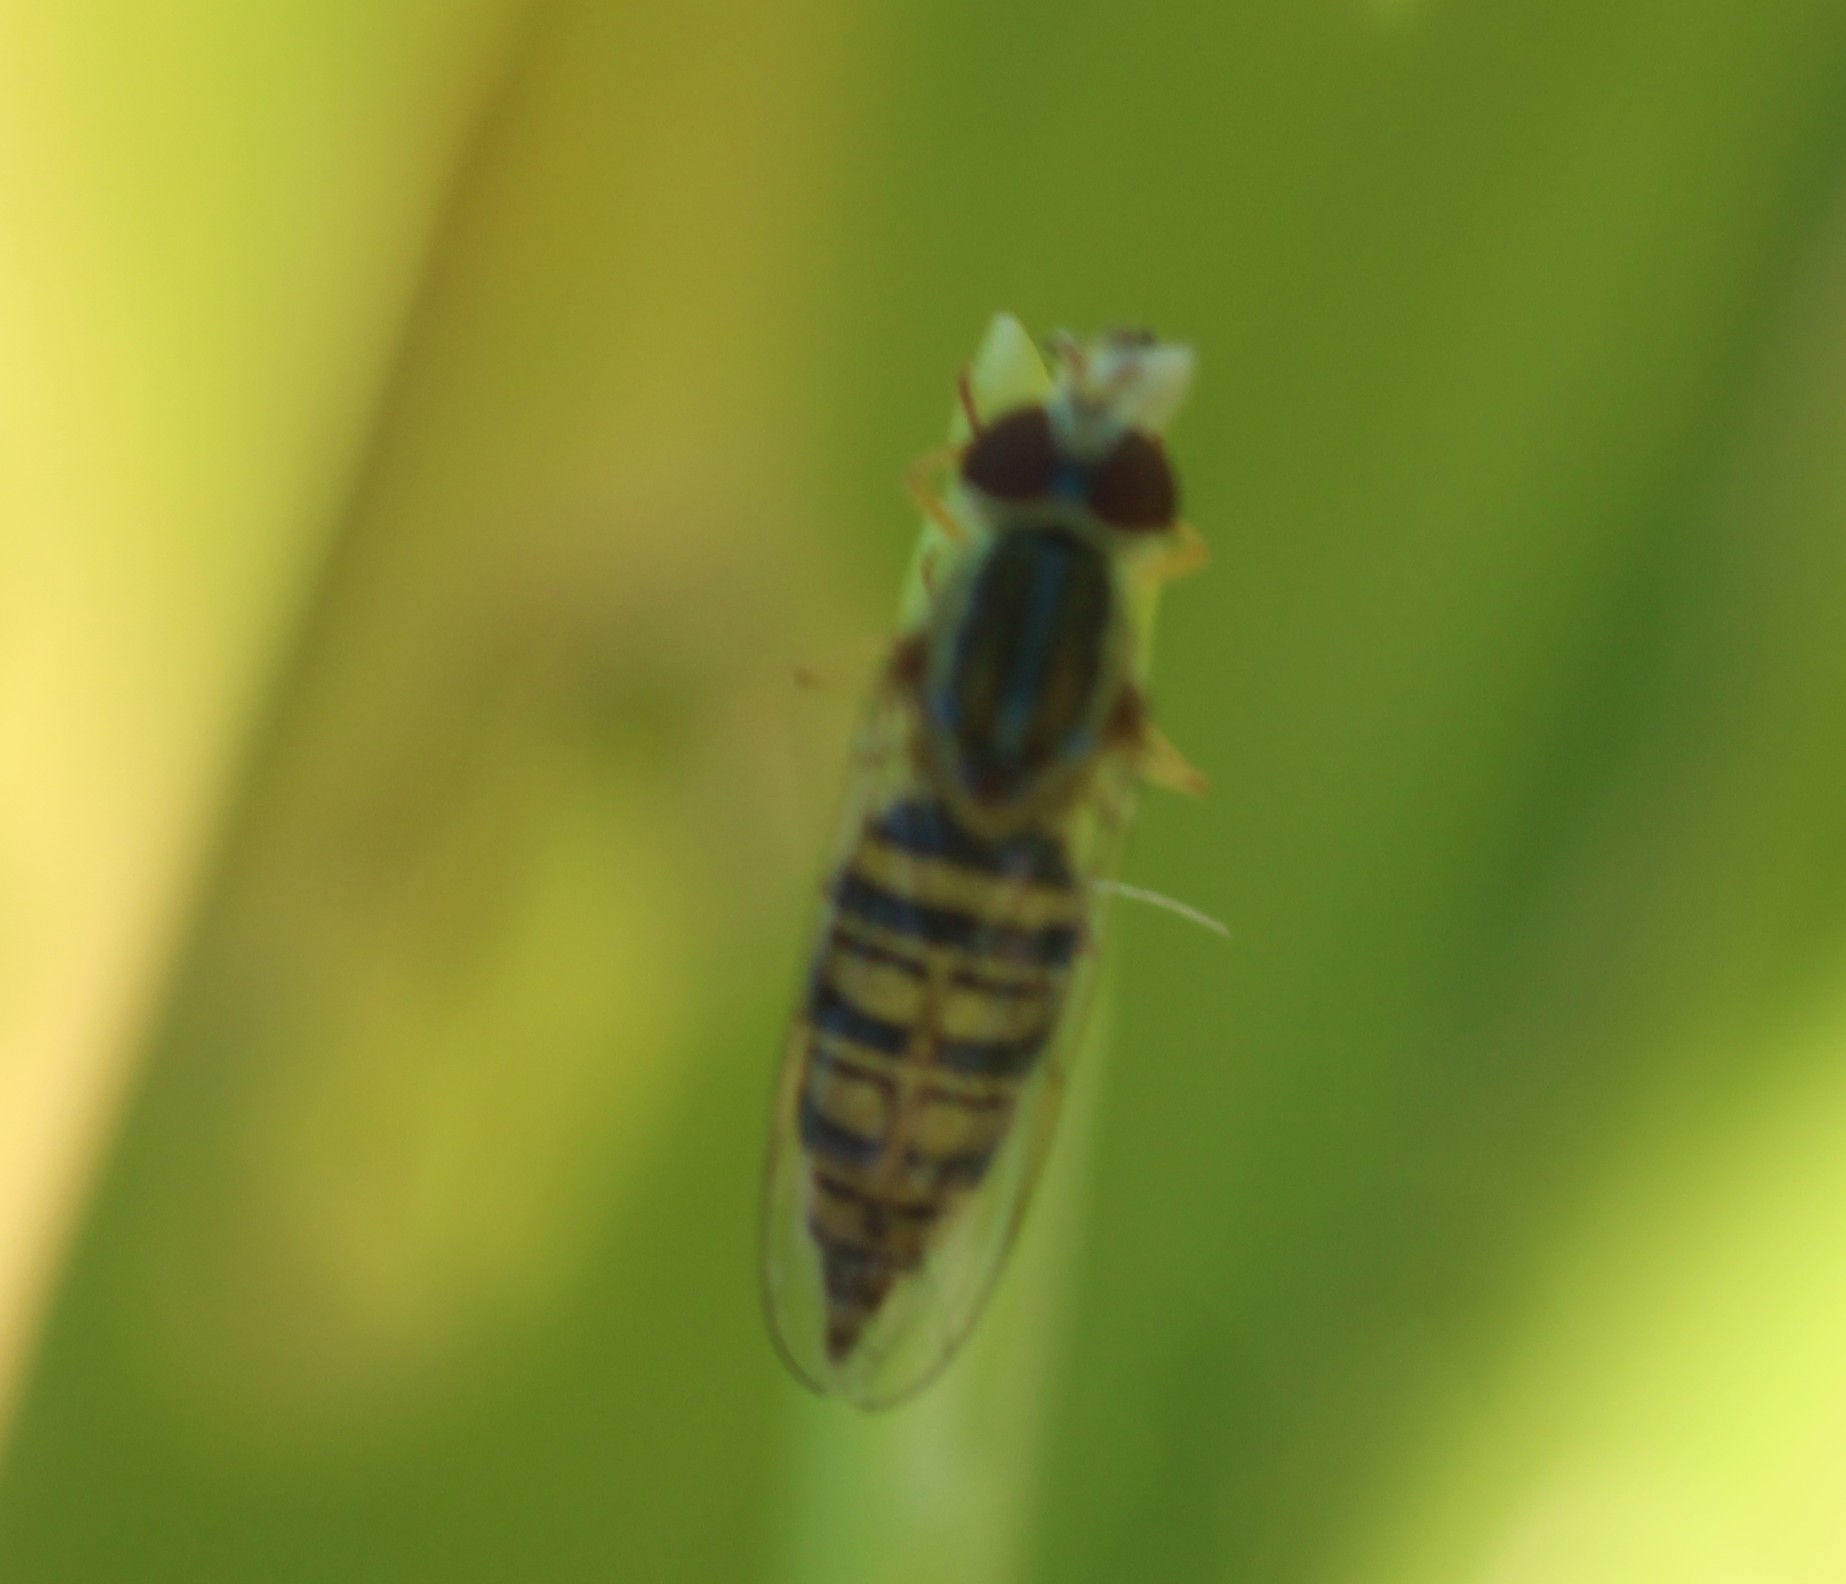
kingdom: Animalia
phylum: Arthropoda
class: Insecta
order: Diptera
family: Syrphidae
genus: Toxomerus
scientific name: Toxomerus politus
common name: Maize calligrapher
